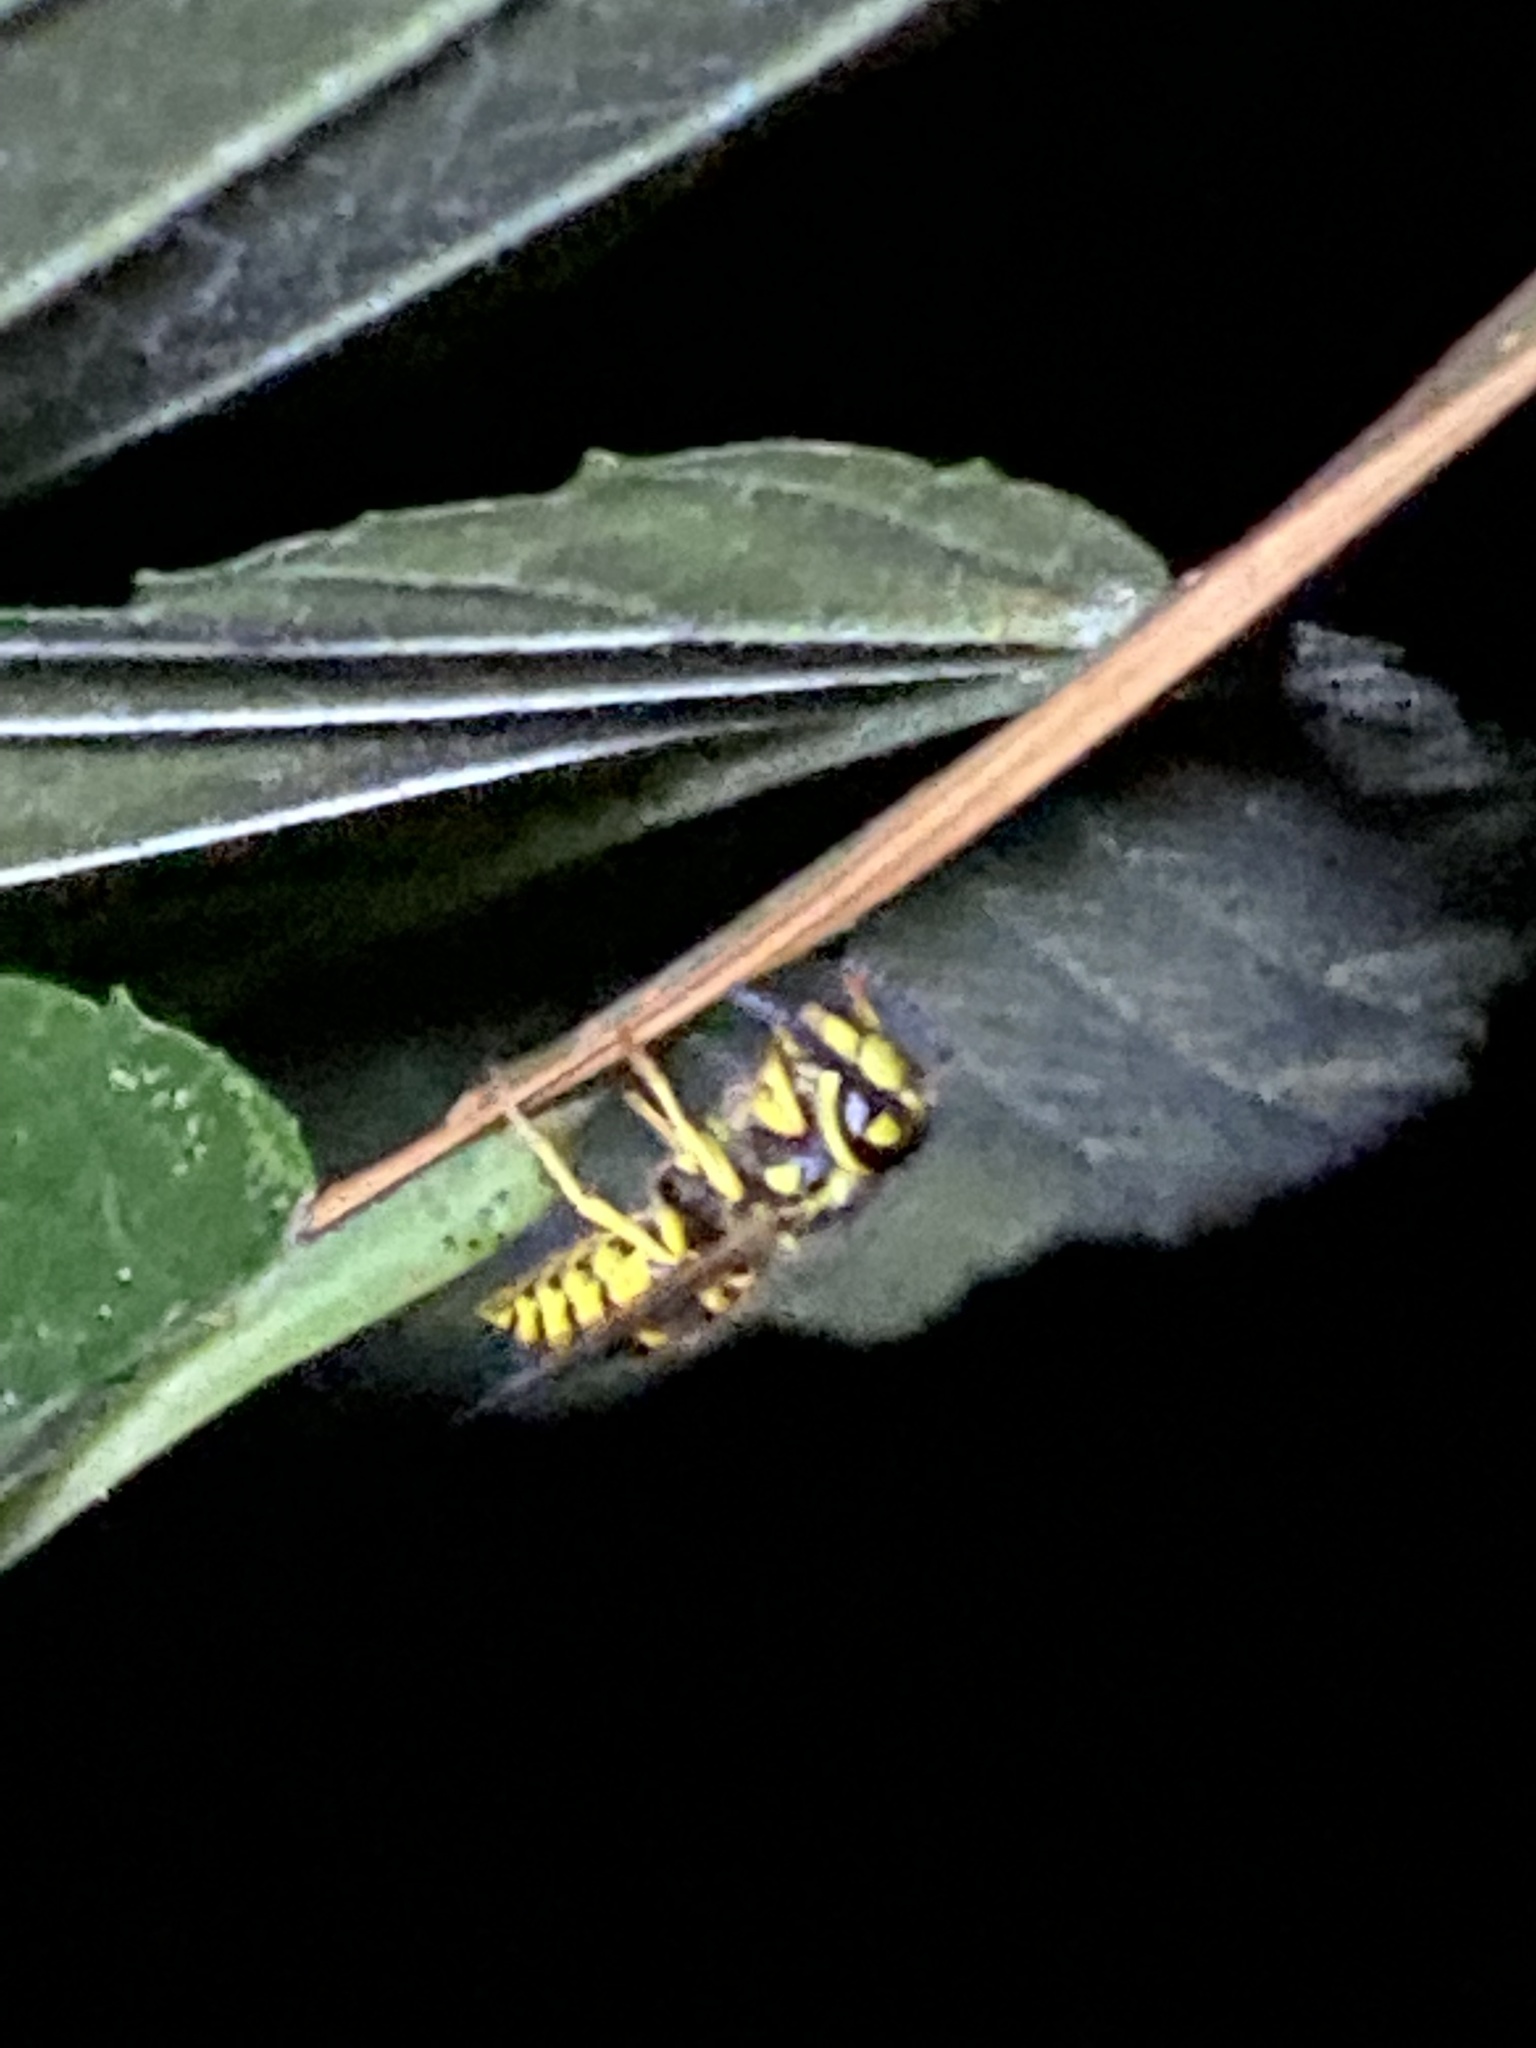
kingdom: Animalia
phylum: Arthropoda
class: Insecta
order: Hymenoptera
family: Vespidae
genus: Vespula
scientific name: Vespula maculifrons
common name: Eastern yellowjacket
